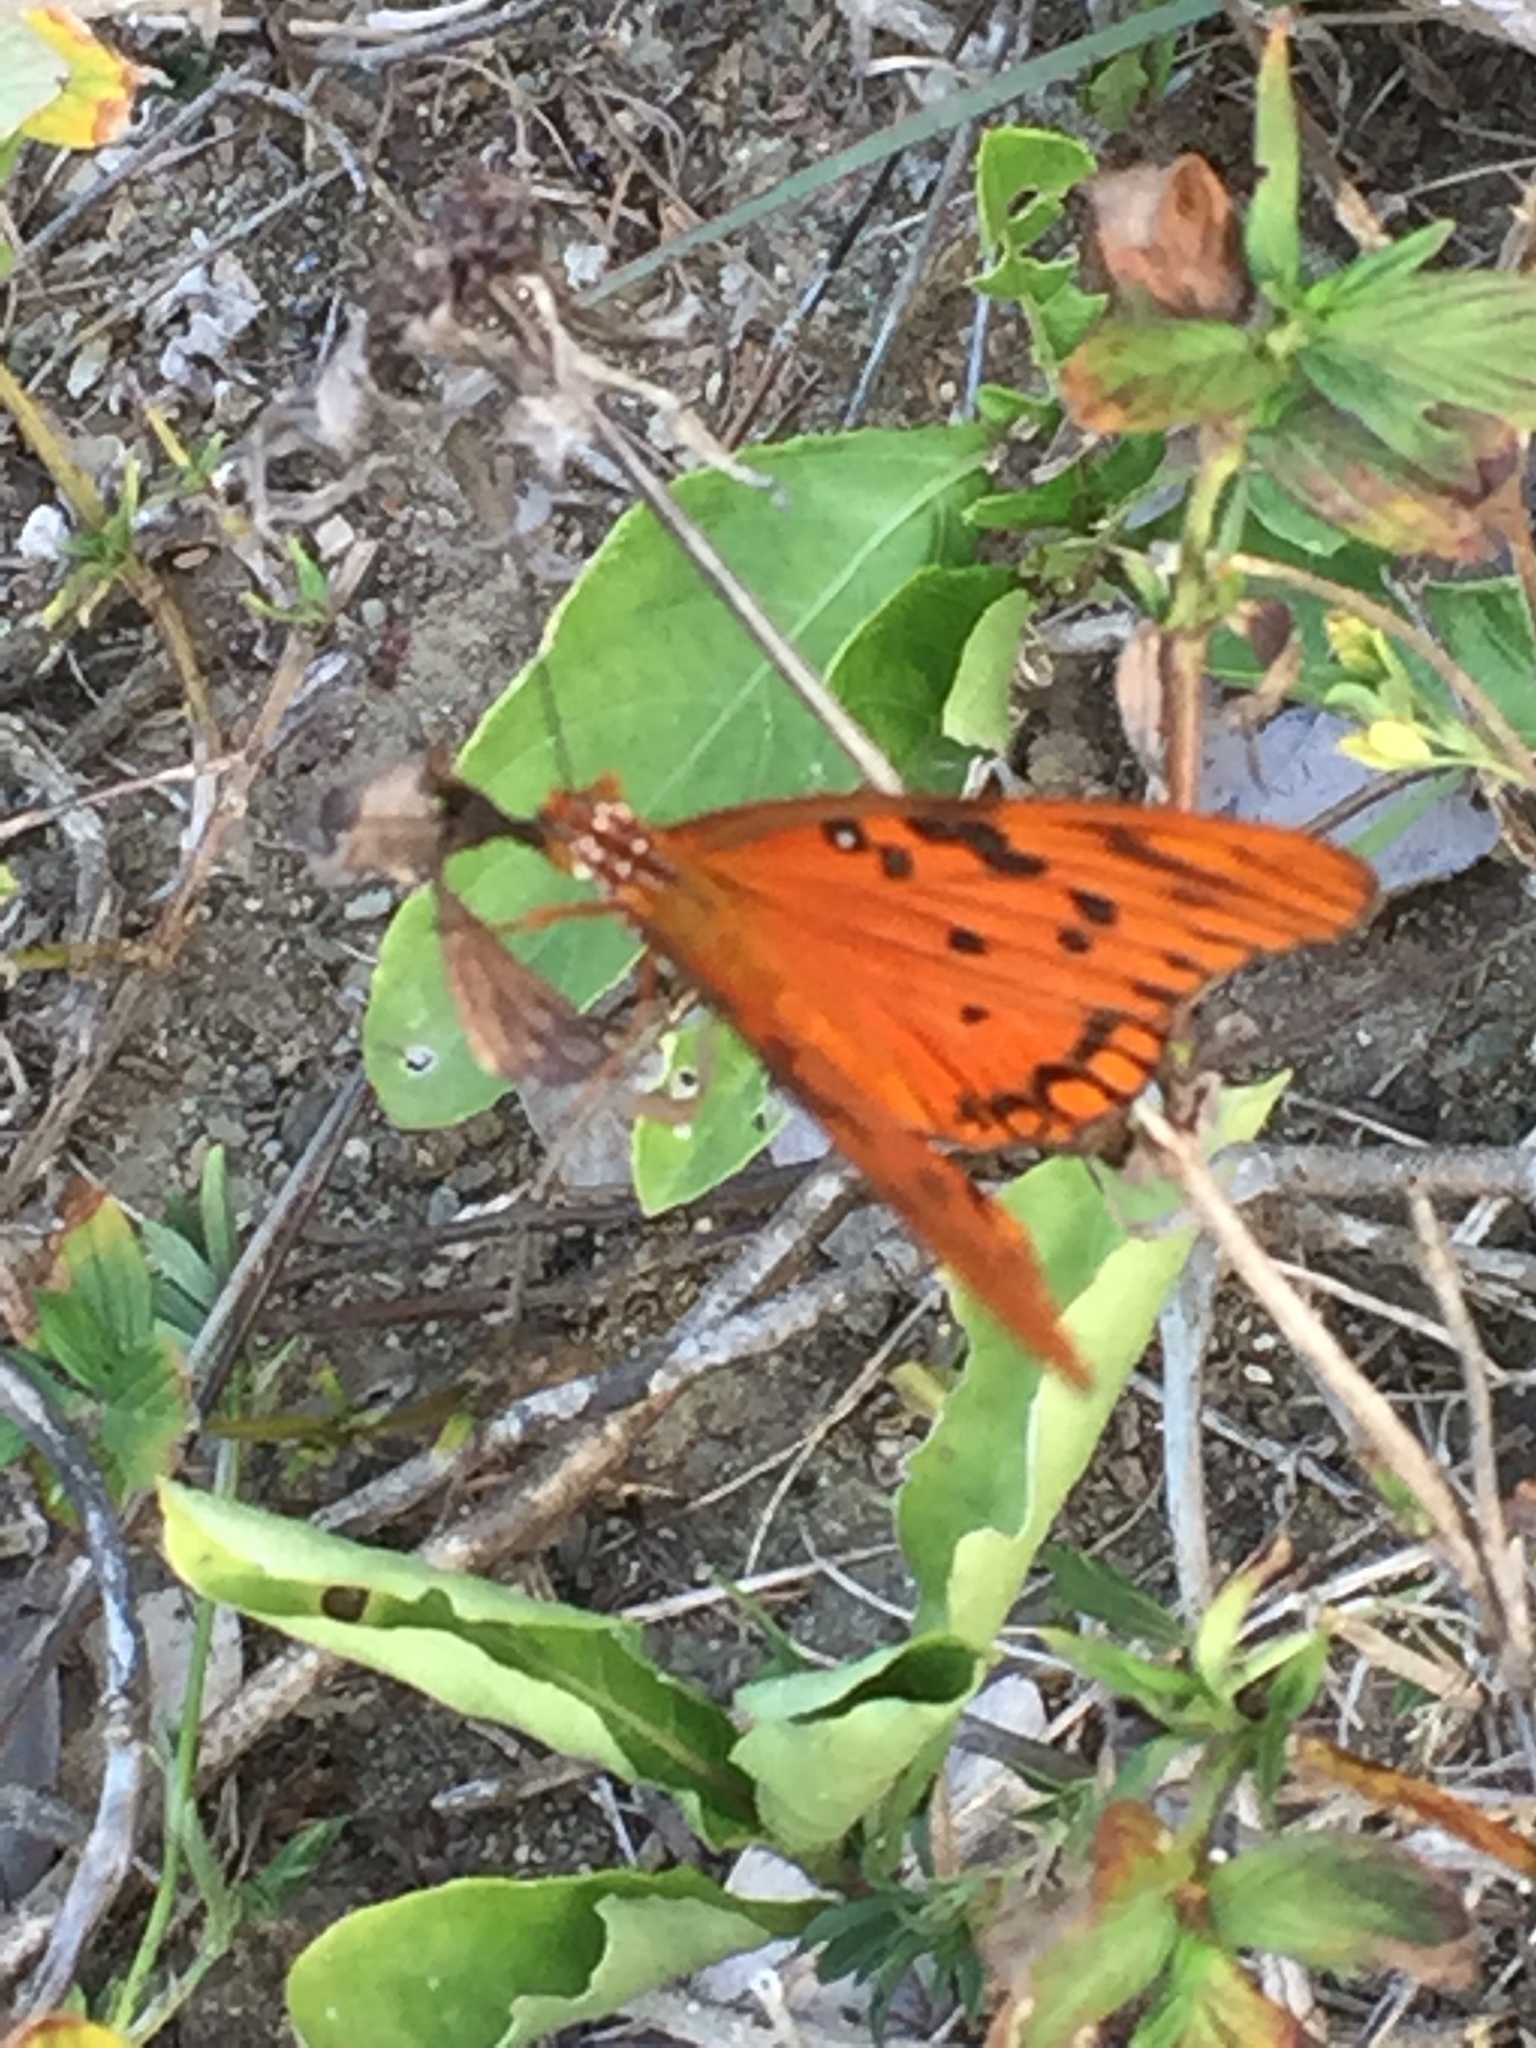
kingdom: Animalia
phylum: Arthropoda
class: Insecta
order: Lepidoptera
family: Nymphalidae
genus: Dione
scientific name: Dione vanillae
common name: Gulf fritillary
